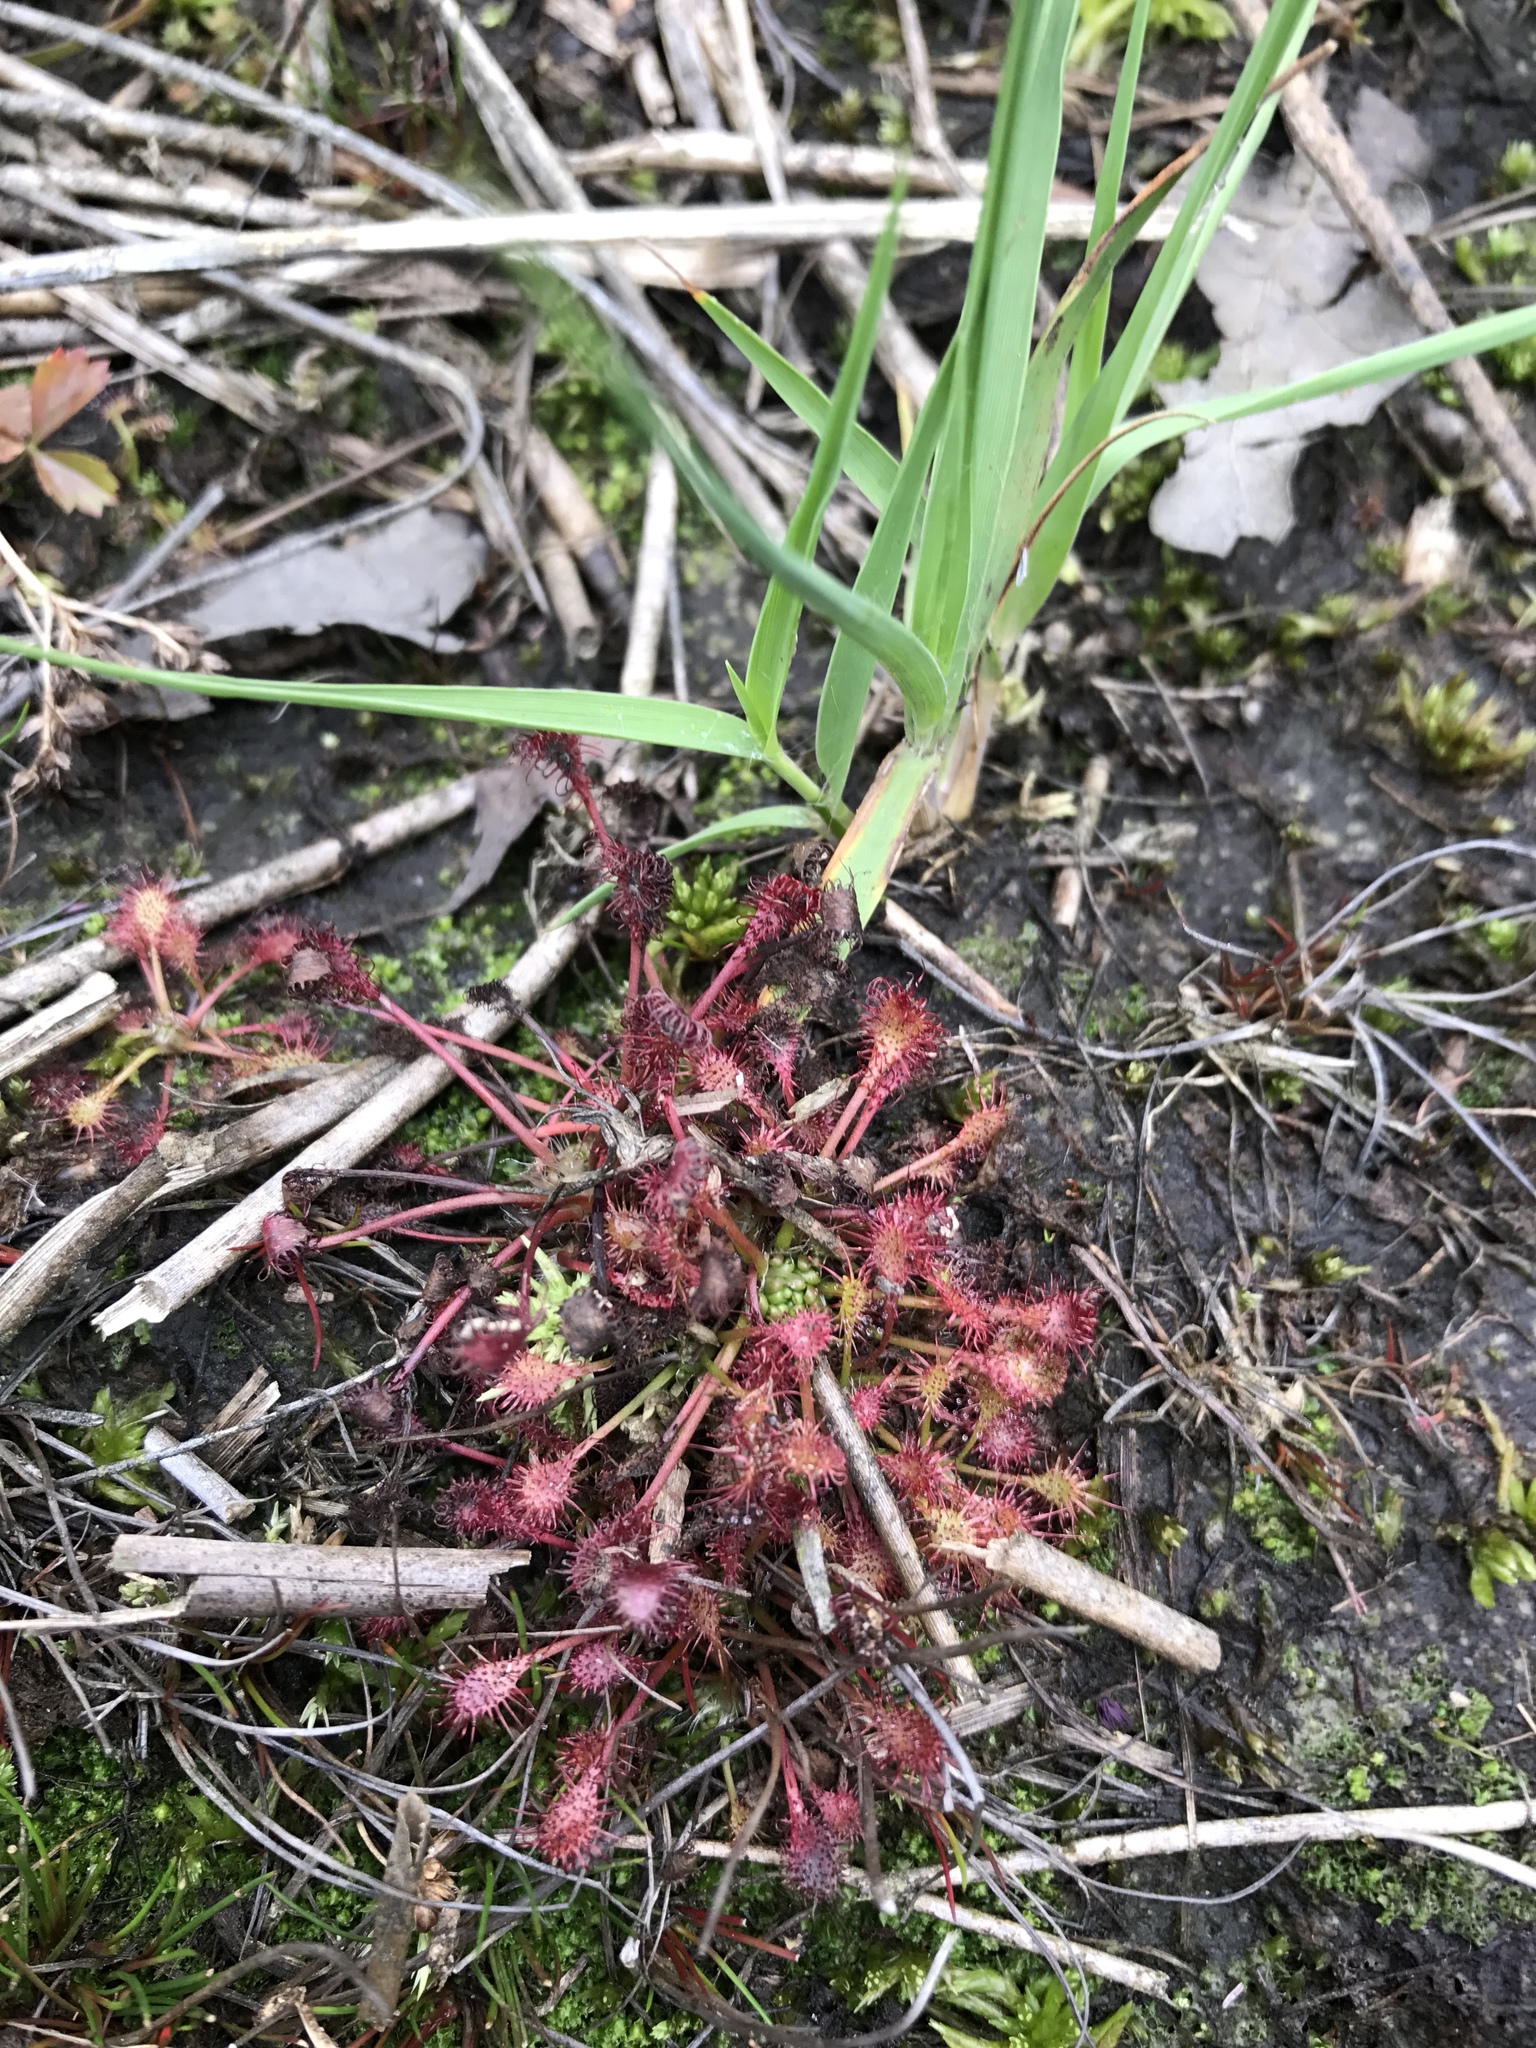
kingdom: Plantae
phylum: Tracheophyta
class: Magnoliopsida
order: Caryophyllales
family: Droseraceae
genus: Drosera
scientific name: Drosera intermedia
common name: Oblong-leaved sundew
